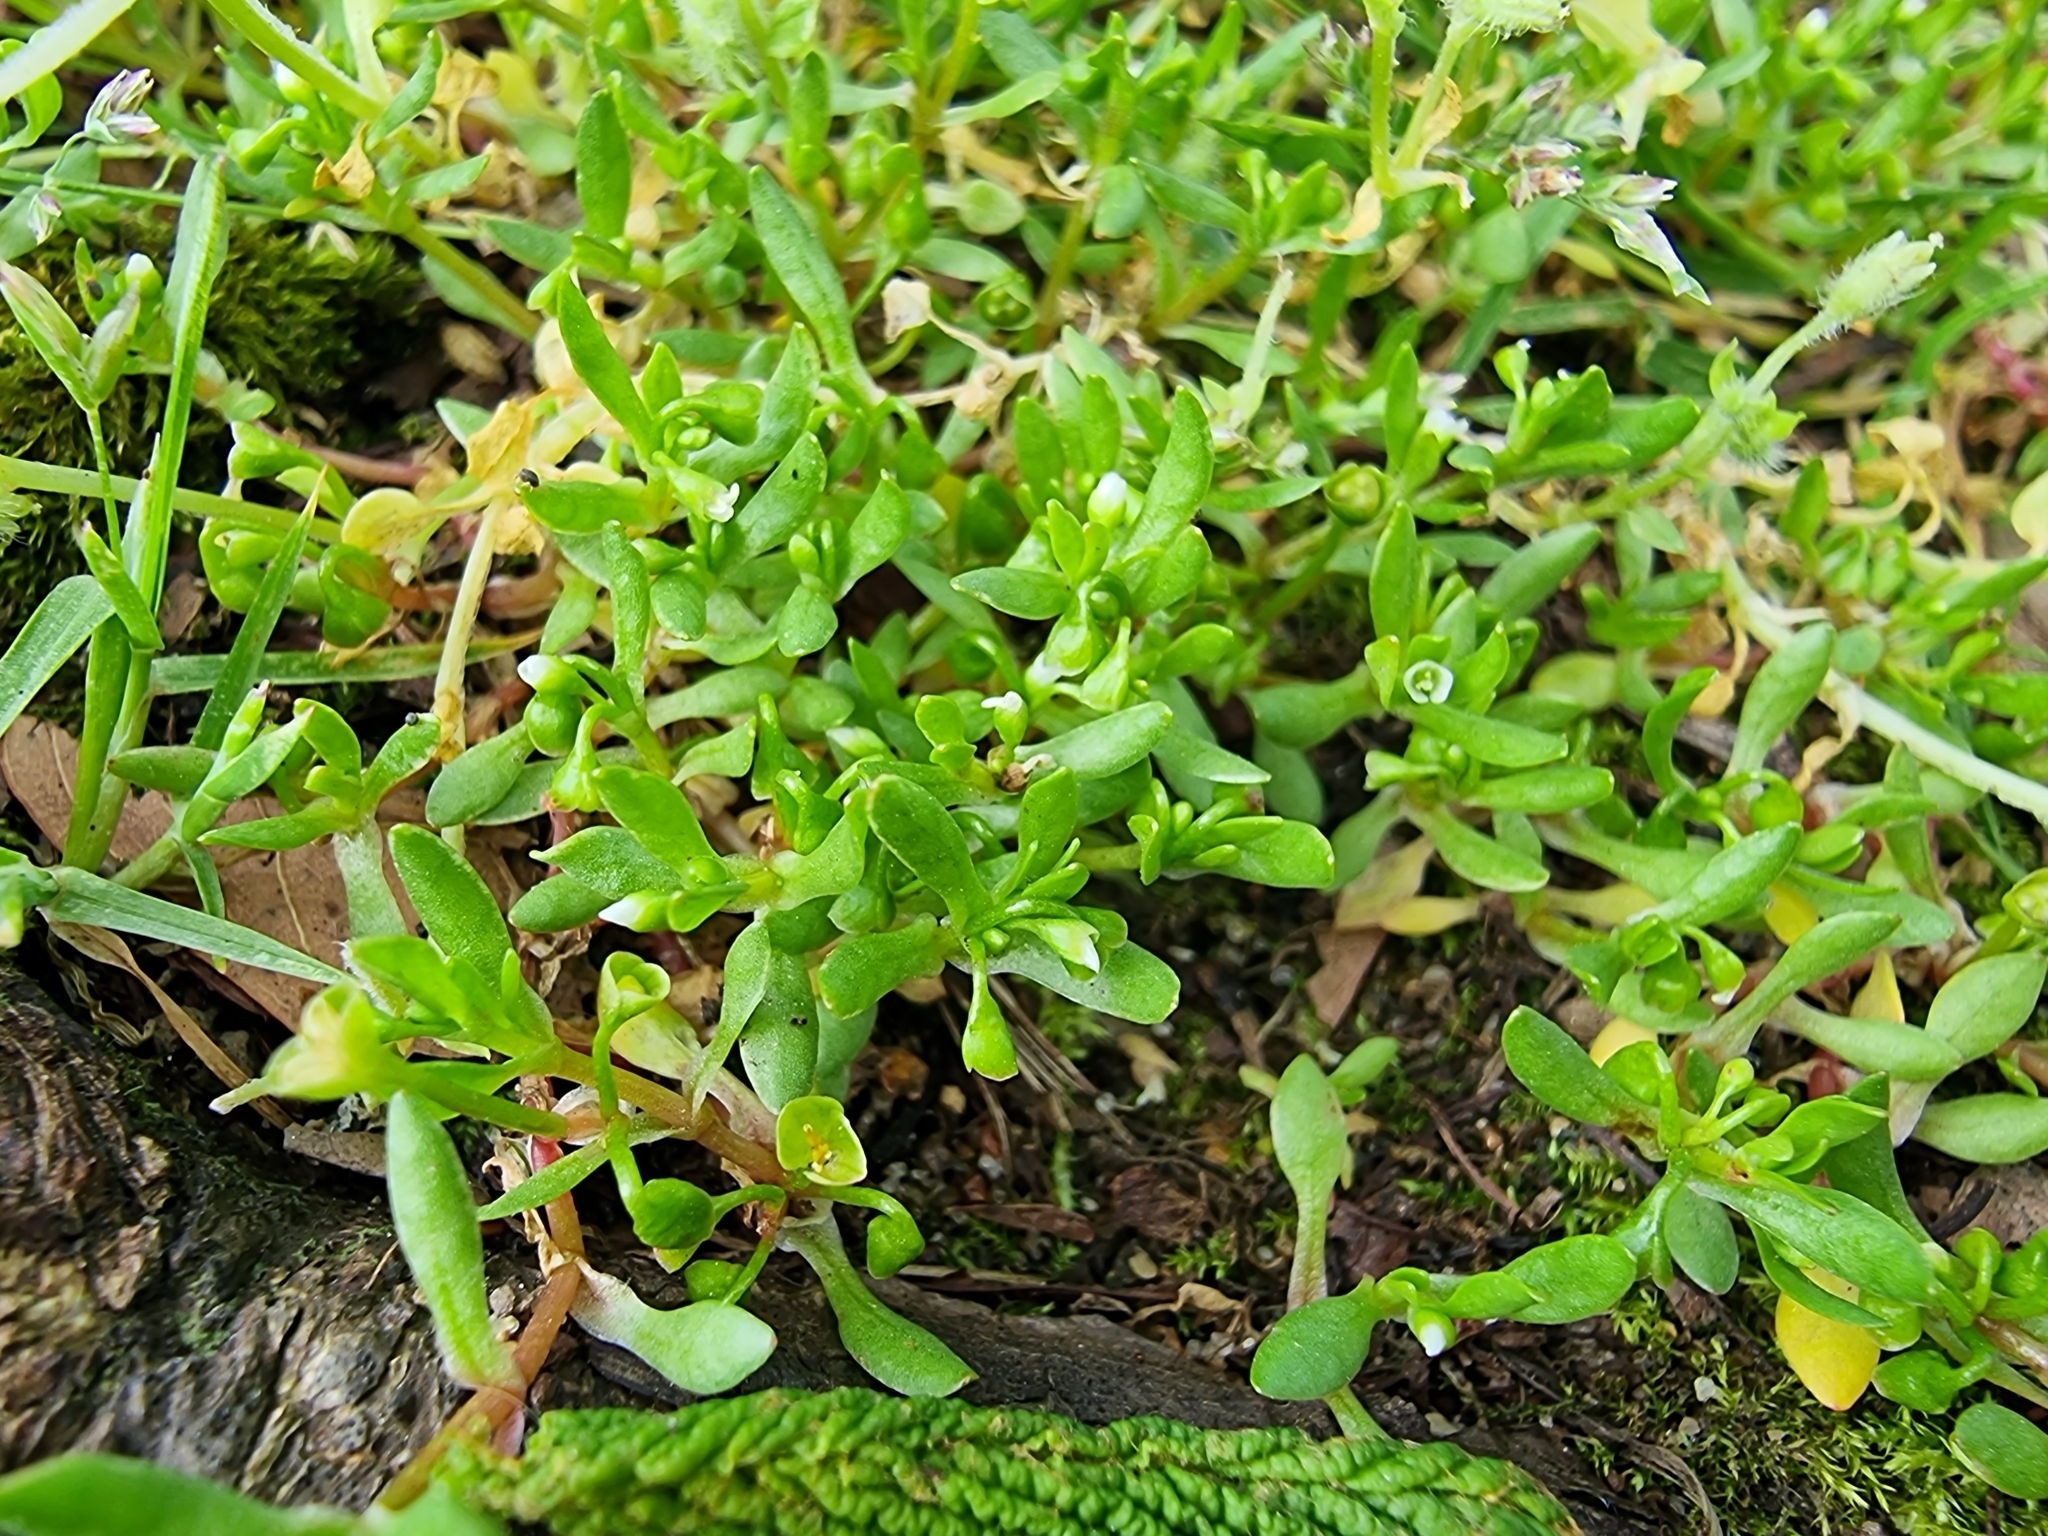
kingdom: Plantae
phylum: Tracheophyta
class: Magnoliopsida
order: Caryophyllales
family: Montiaceae
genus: Montia
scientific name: Montia fontana
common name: Blinks
